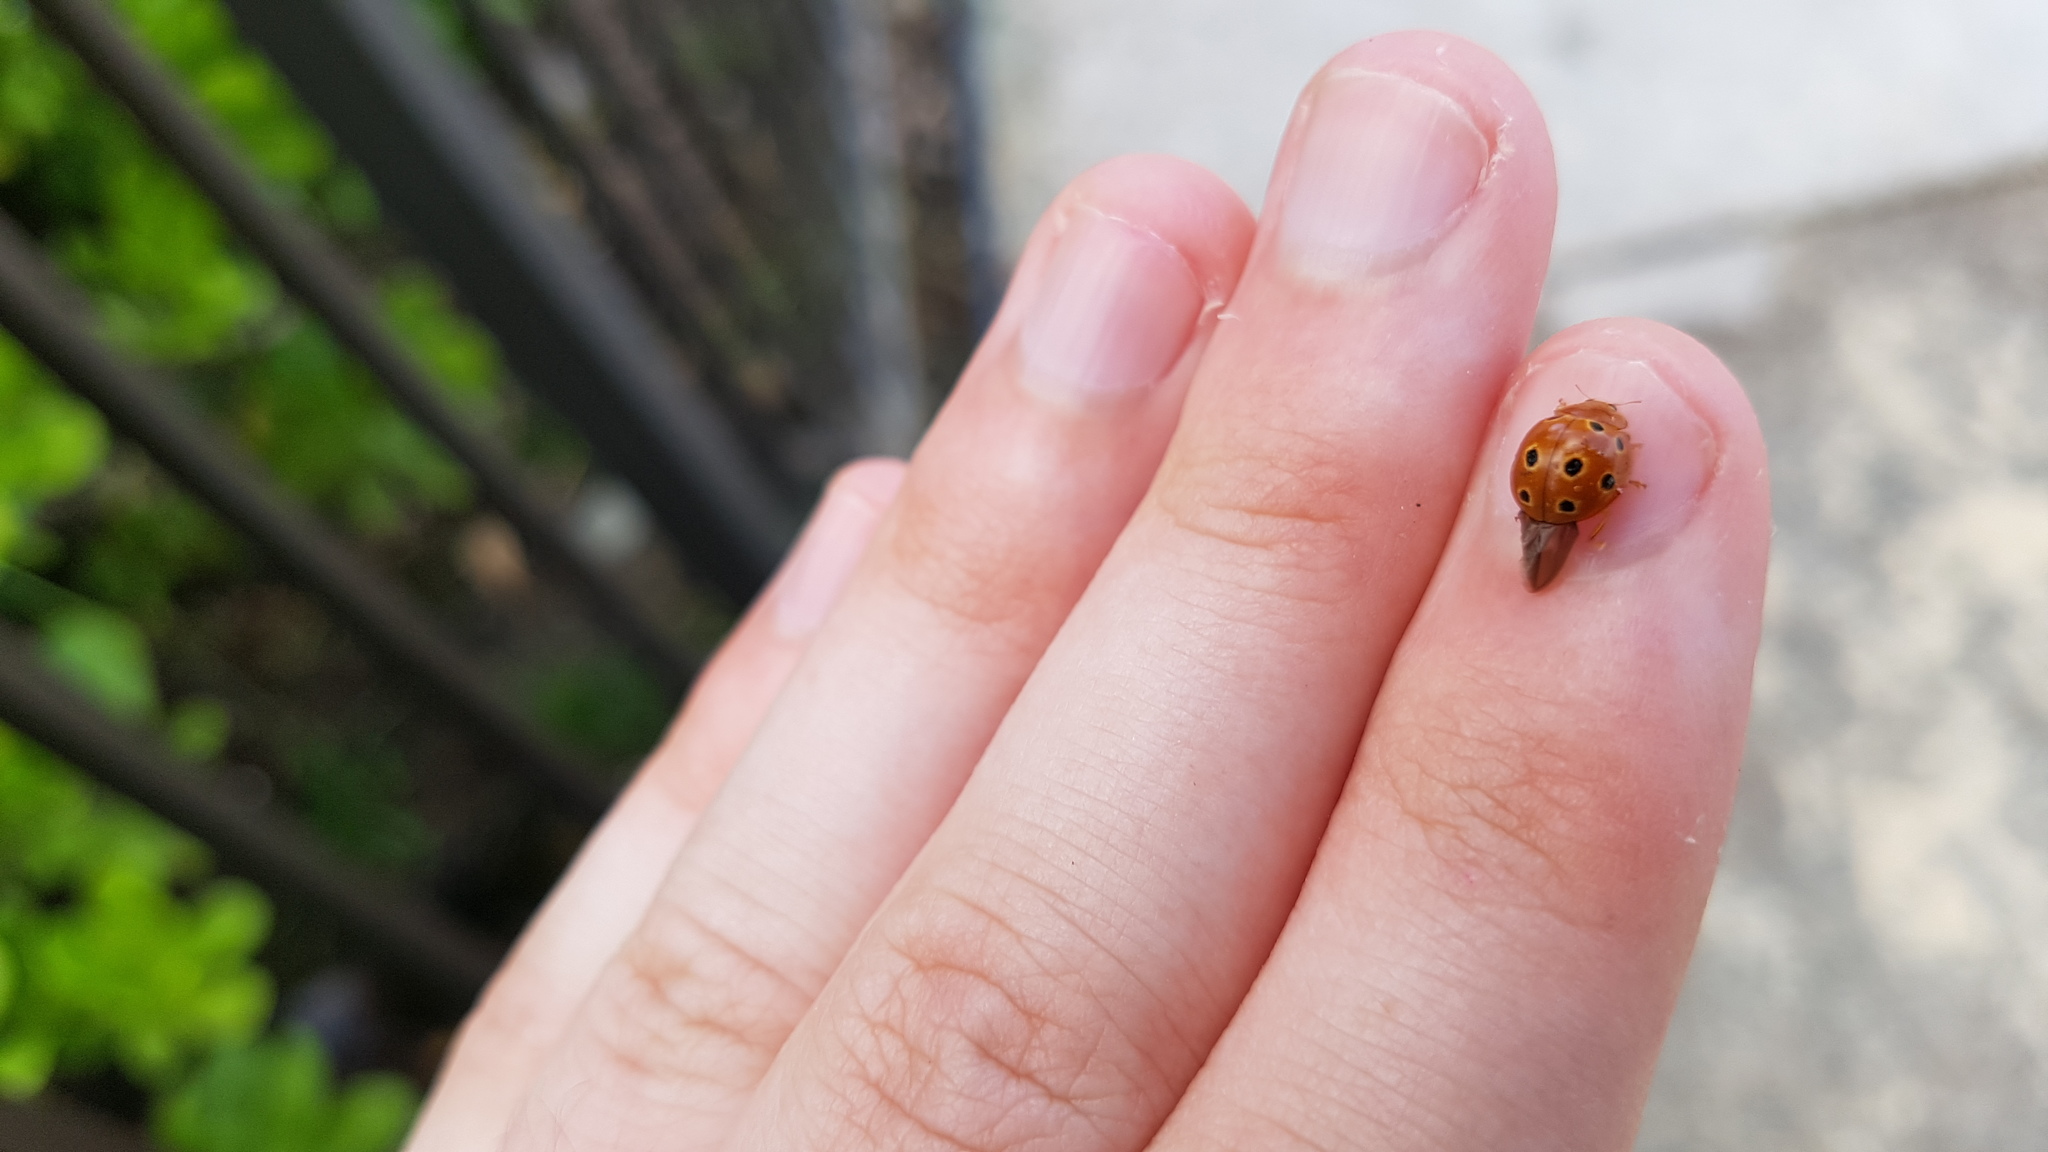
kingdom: Animalia
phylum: Arthropoda
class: Insecta
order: Coleoptera
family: Coccinellidae
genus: Microcaria
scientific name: Microcaria
